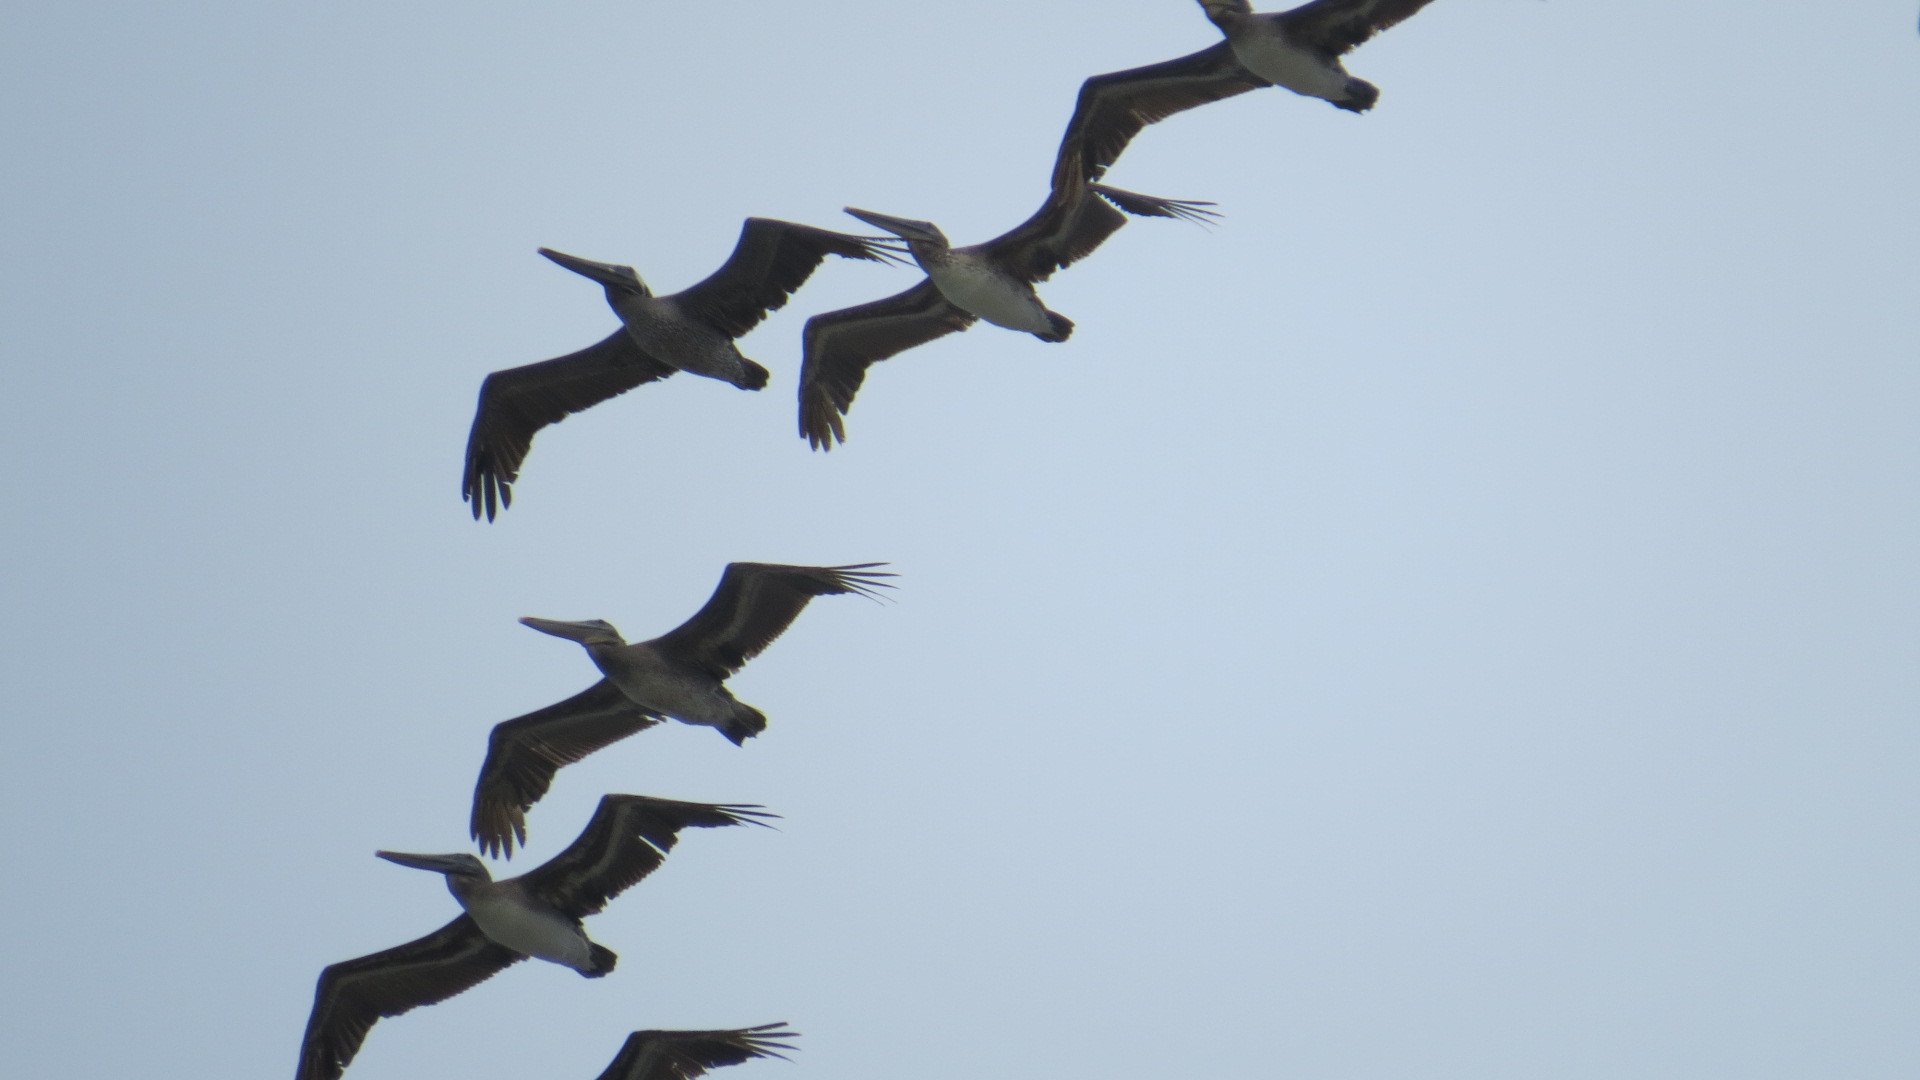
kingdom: Animalia
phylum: Chordata
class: Aves
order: Pelecaniformes
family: Pelecanidae
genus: Pelecanus
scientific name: Pelecanus occidentalis
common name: Brown pelican
